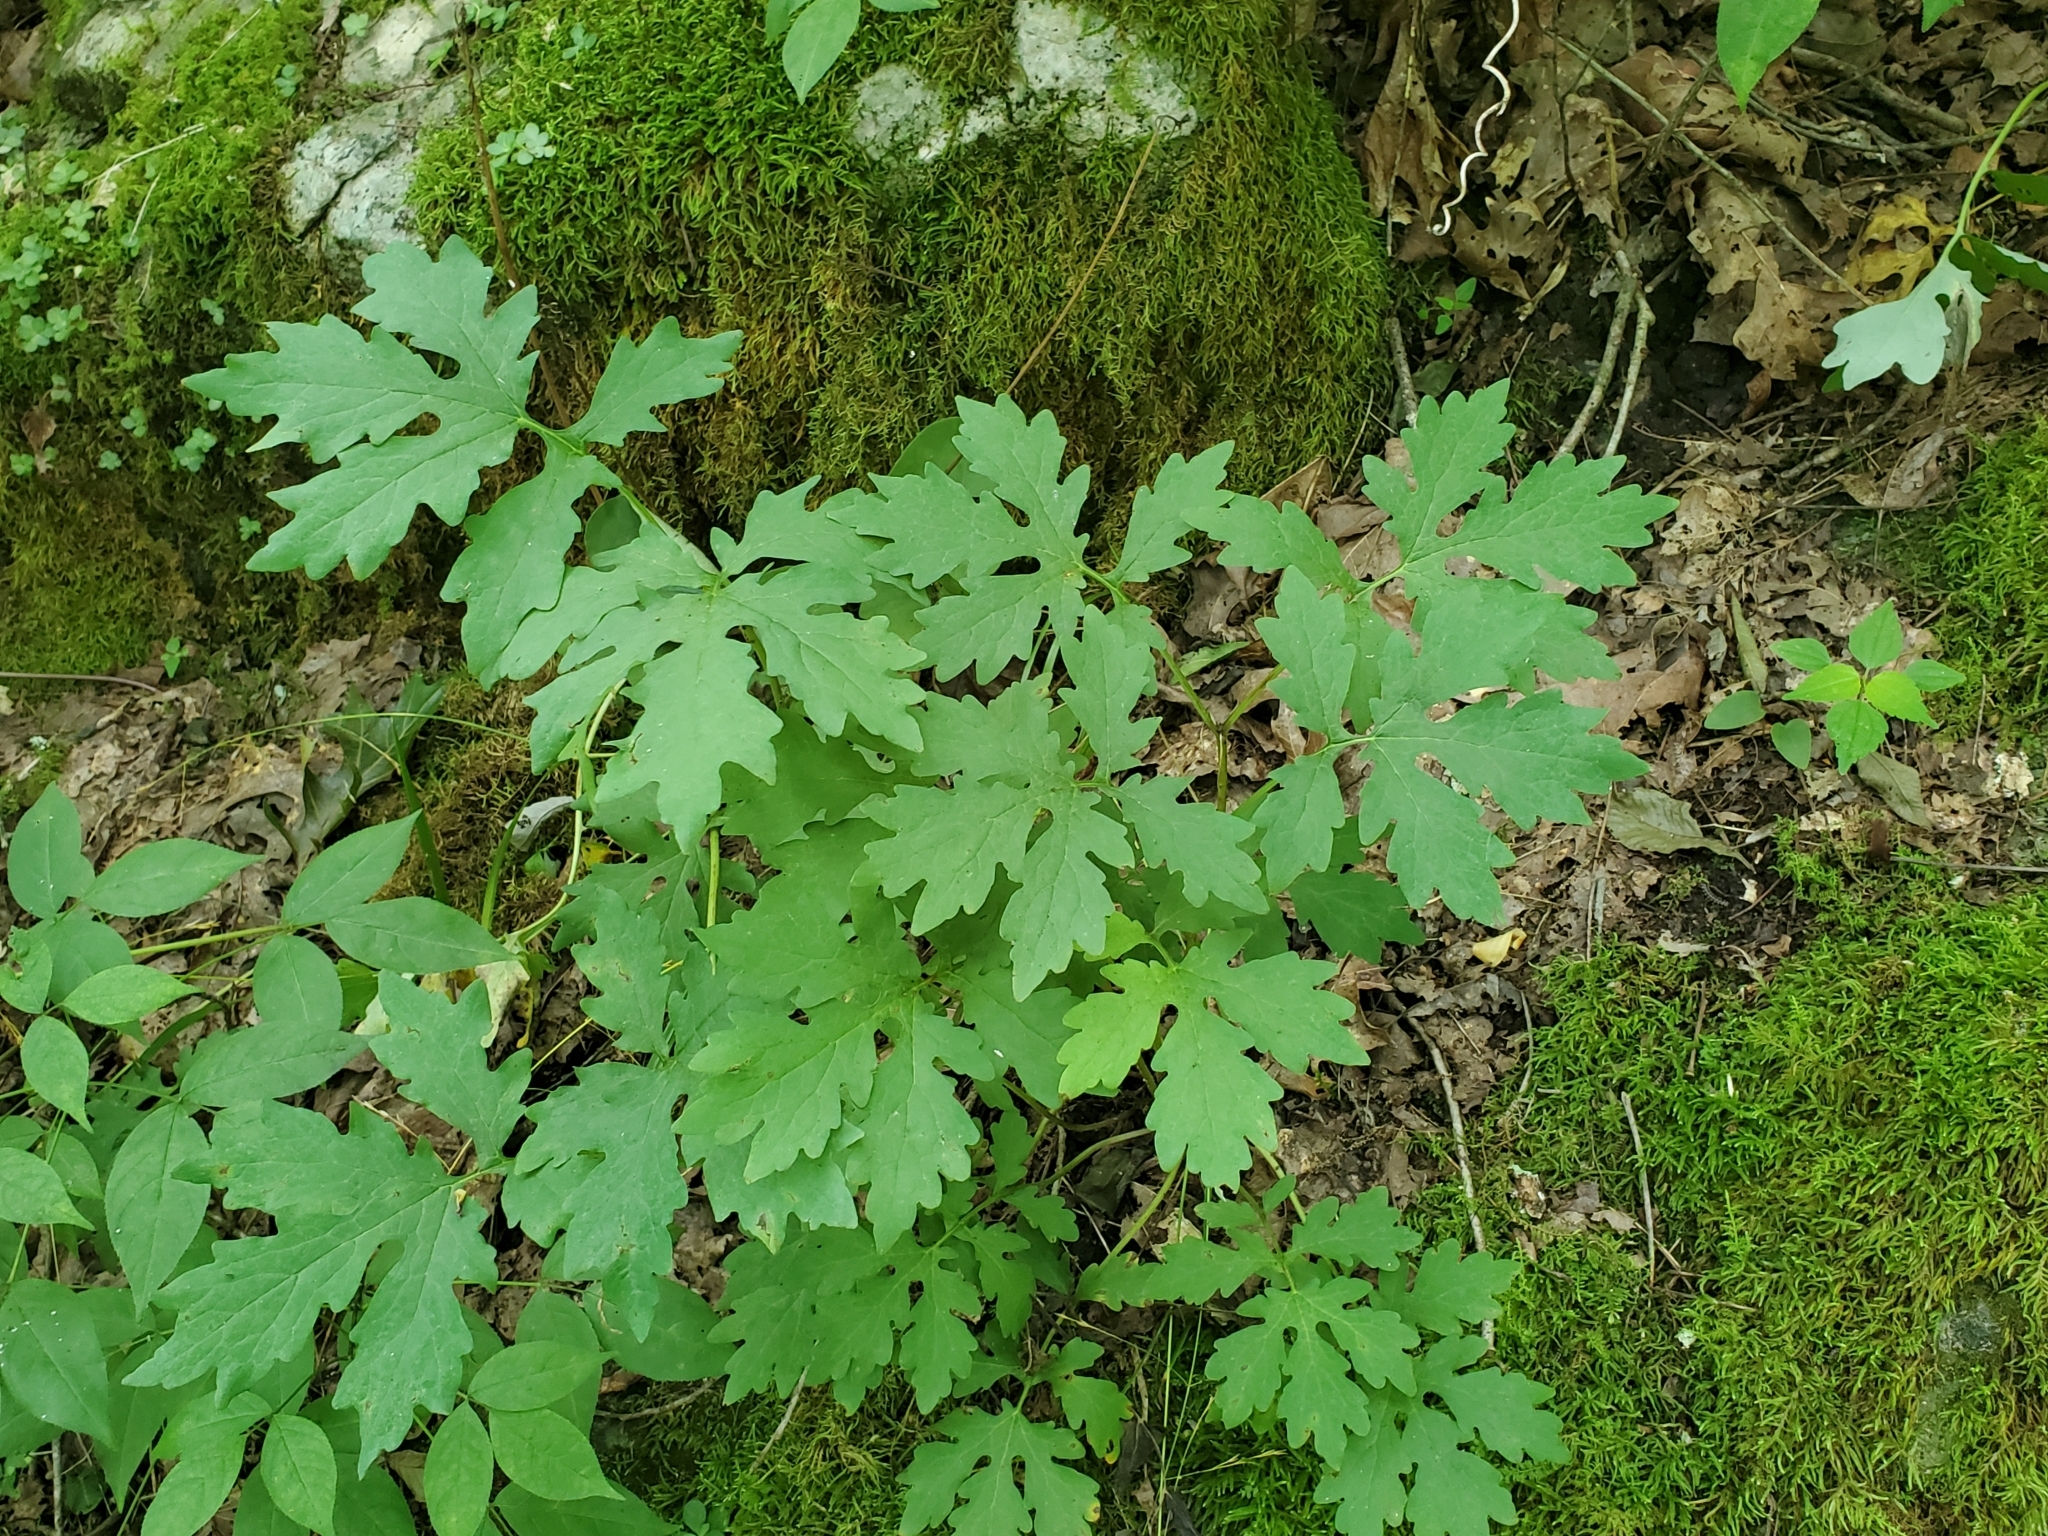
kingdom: Plantae
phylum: Tracheophyta
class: Magnoliopsida
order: Ranunculales
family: Papaveraceae
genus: Stylophorum
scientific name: Stylophorum diphyllum
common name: Celandine poppy
